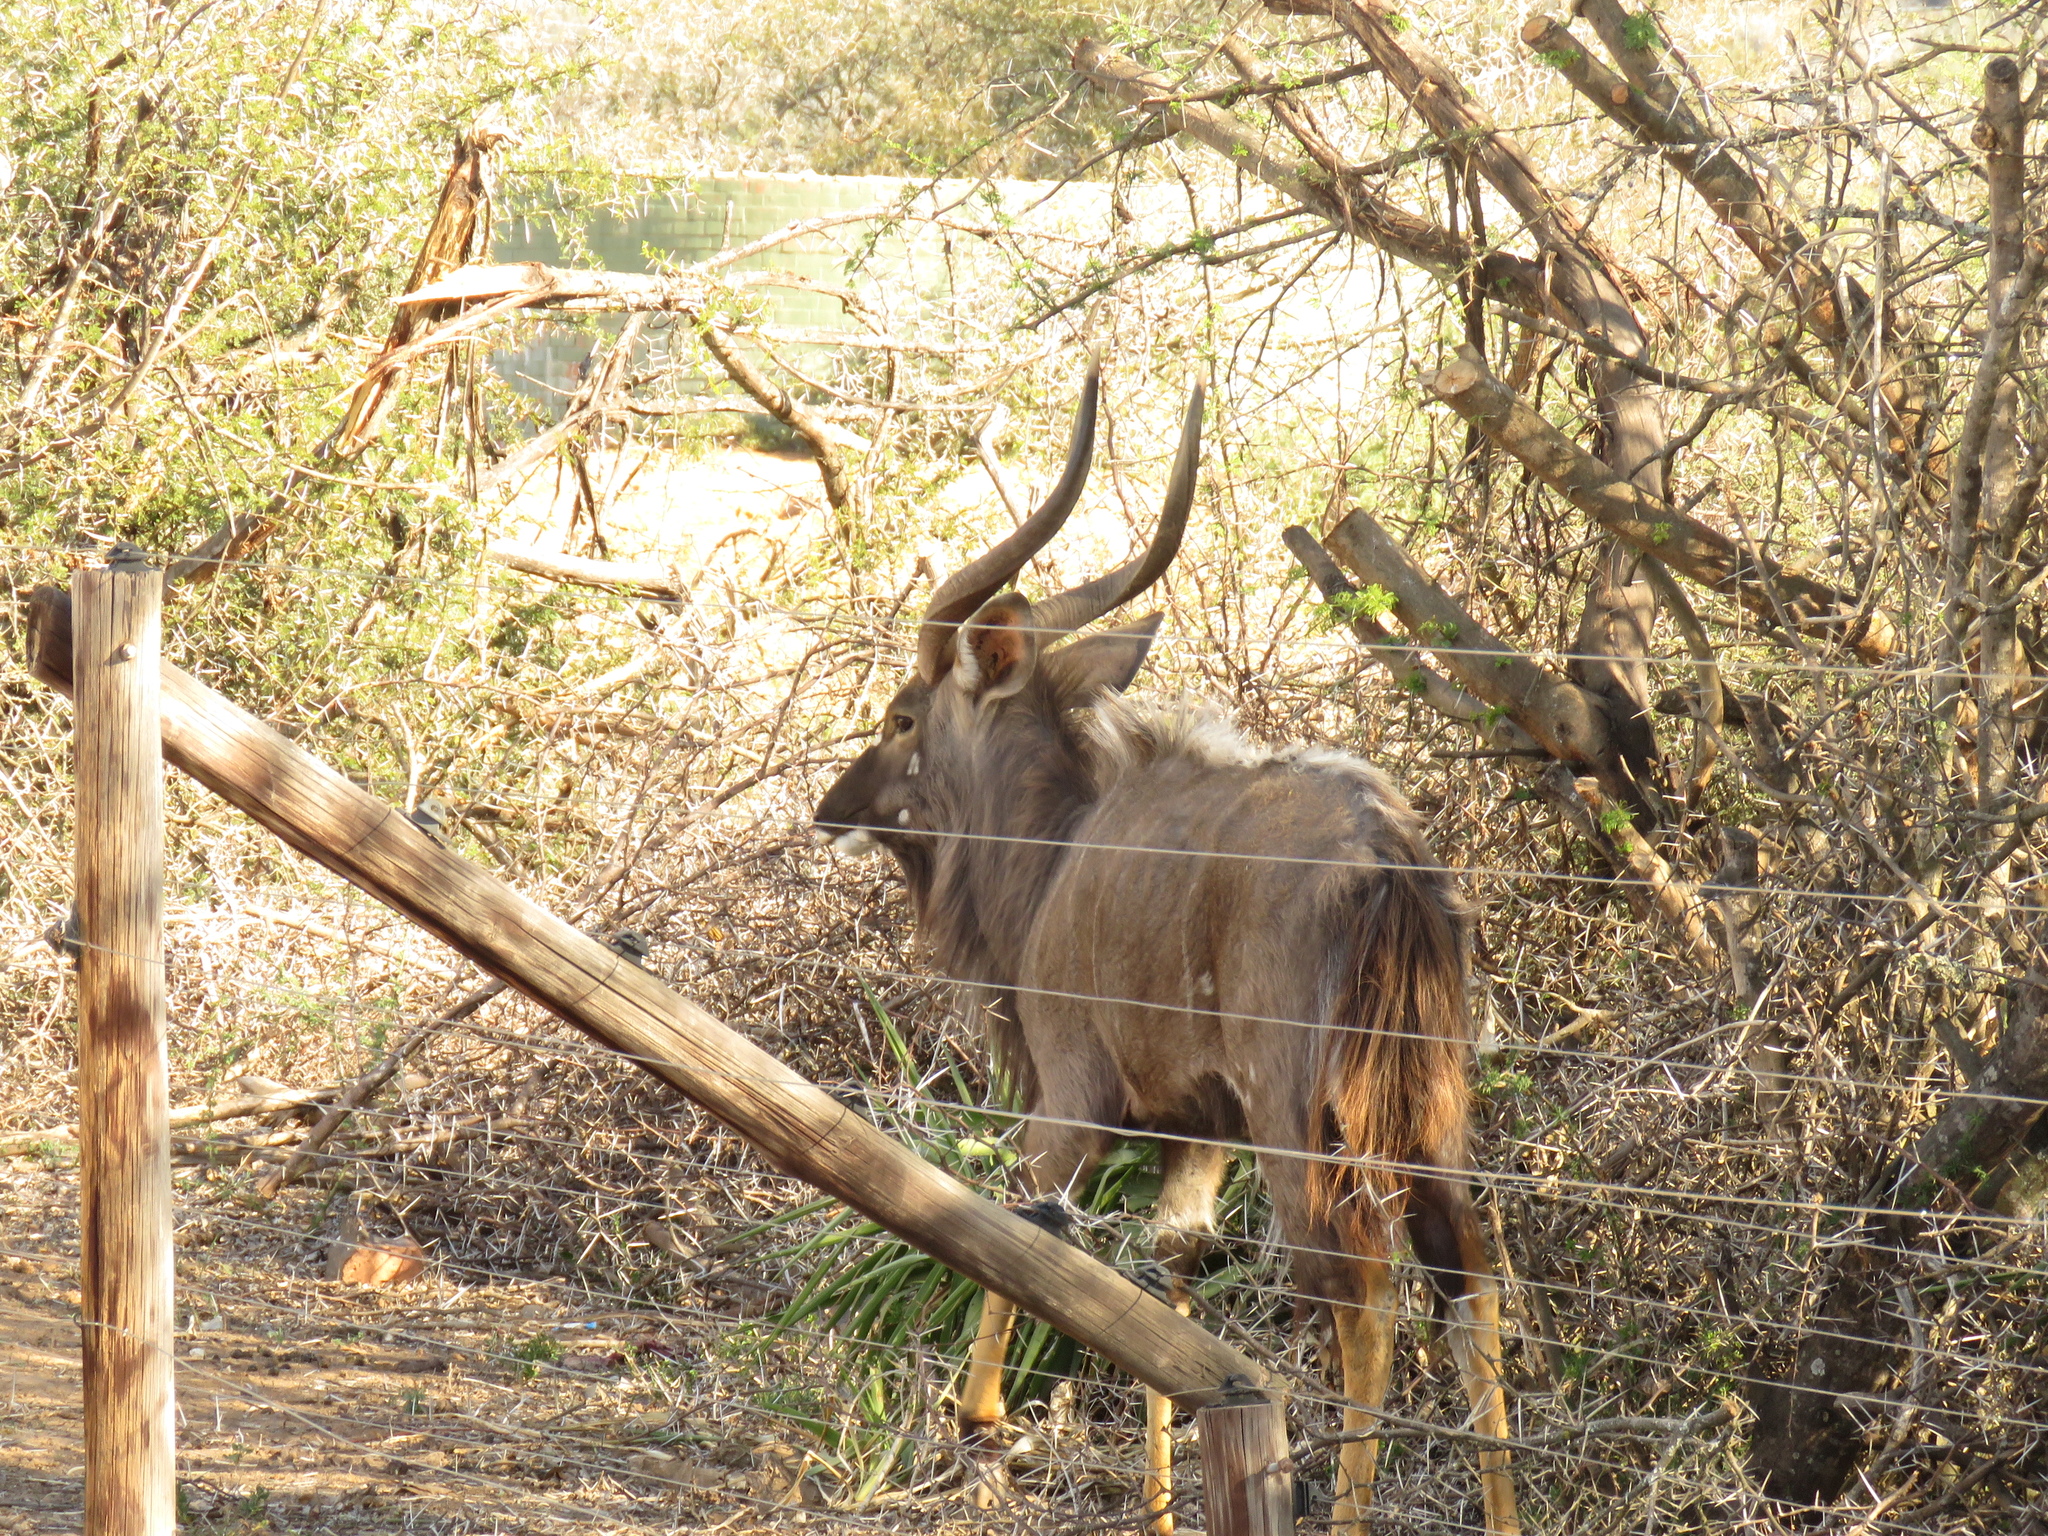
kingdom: Animalia
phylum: Chordata
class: Mammalia
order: Artiodactyla
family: Bovidae
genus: Tragelaphus
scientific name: Tragelaphus angasii
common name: Nyala
